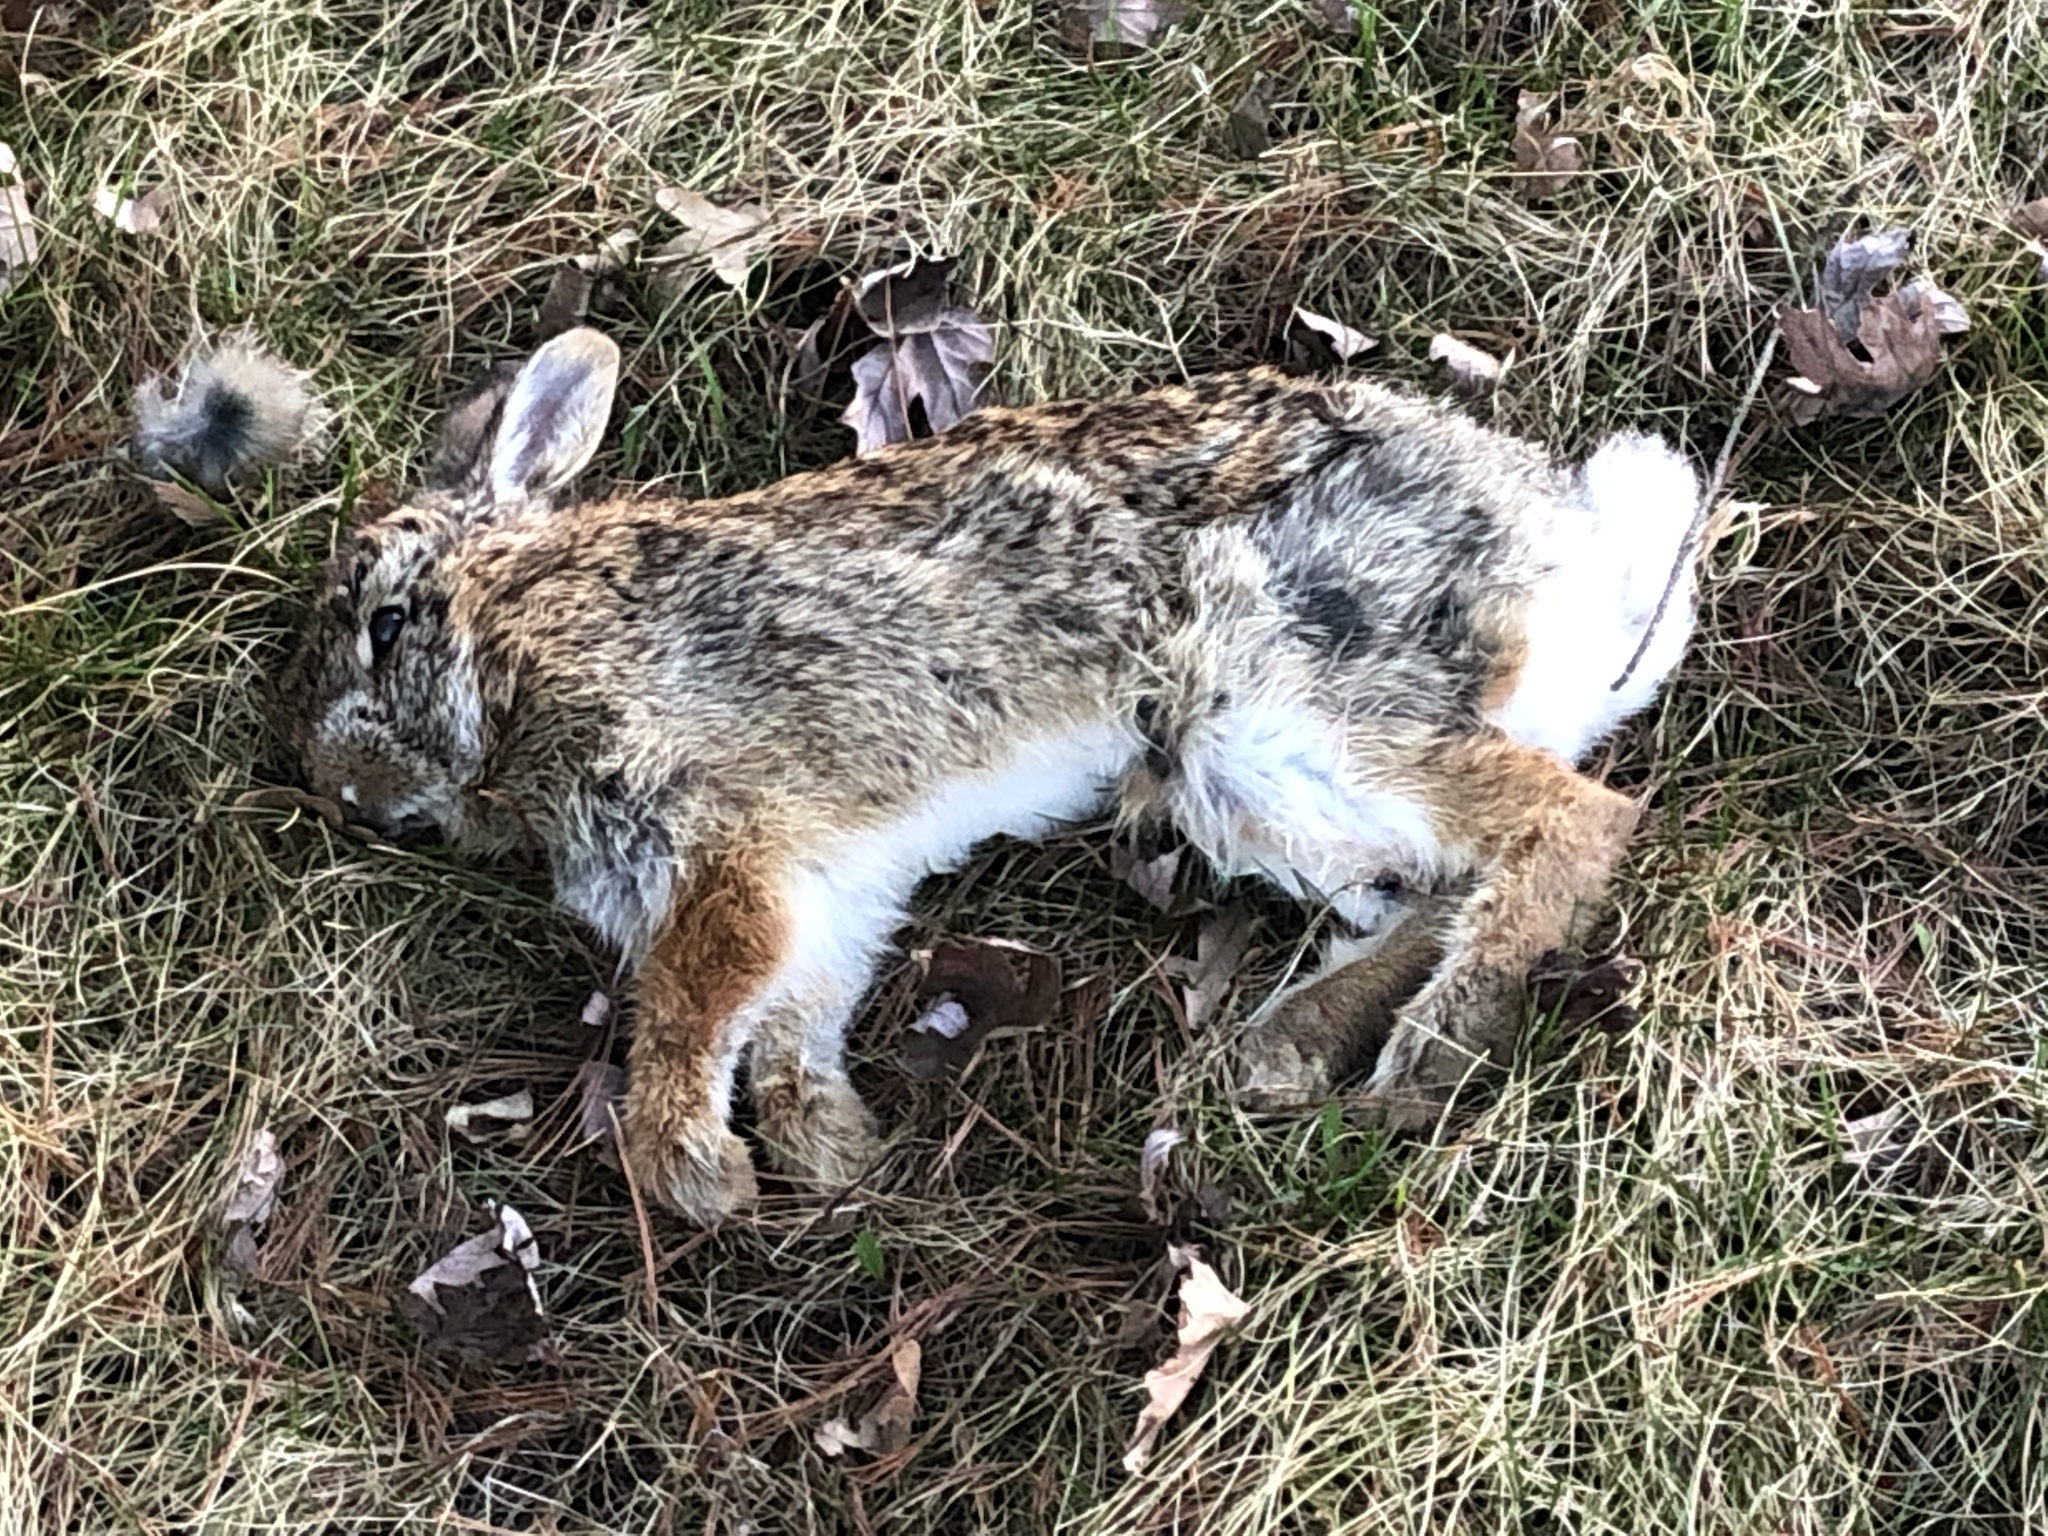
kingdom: Animalia
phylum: Chordata
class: Mammalia
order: Lagomorpha
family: Leporidae
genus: Sylvilagus
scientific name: Sylvilagus floridanus
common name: Eastern cottontail
